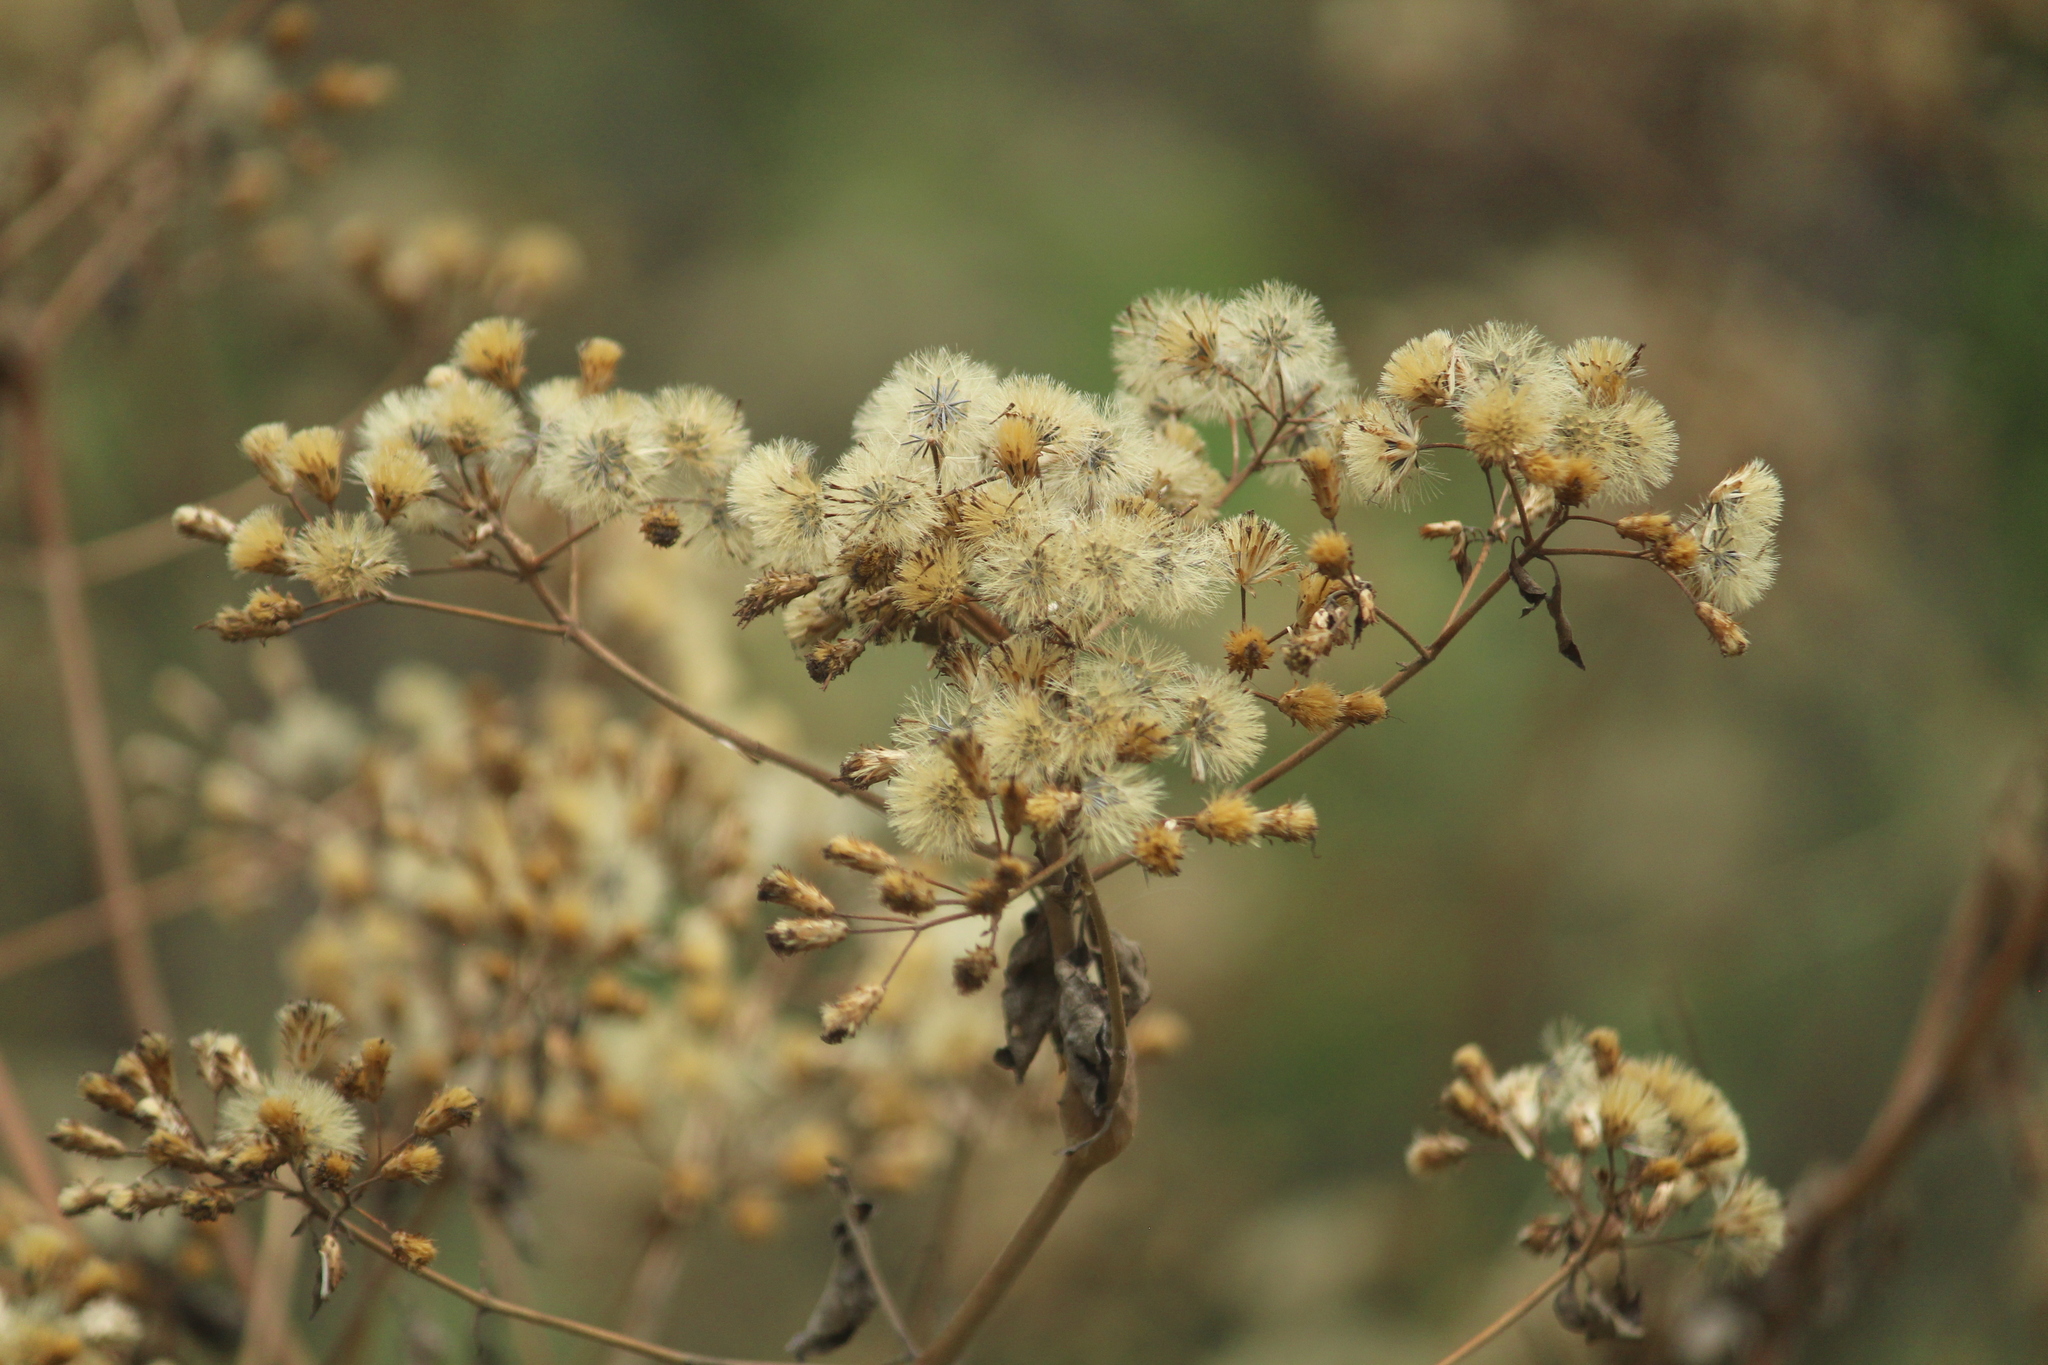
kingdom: Plantae
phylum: Tracheophyta
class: Magnoliopsida
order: Asterales
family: Asteraceae
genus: Chromolaena
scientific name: Chromolaena odorata
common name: Siamweed
